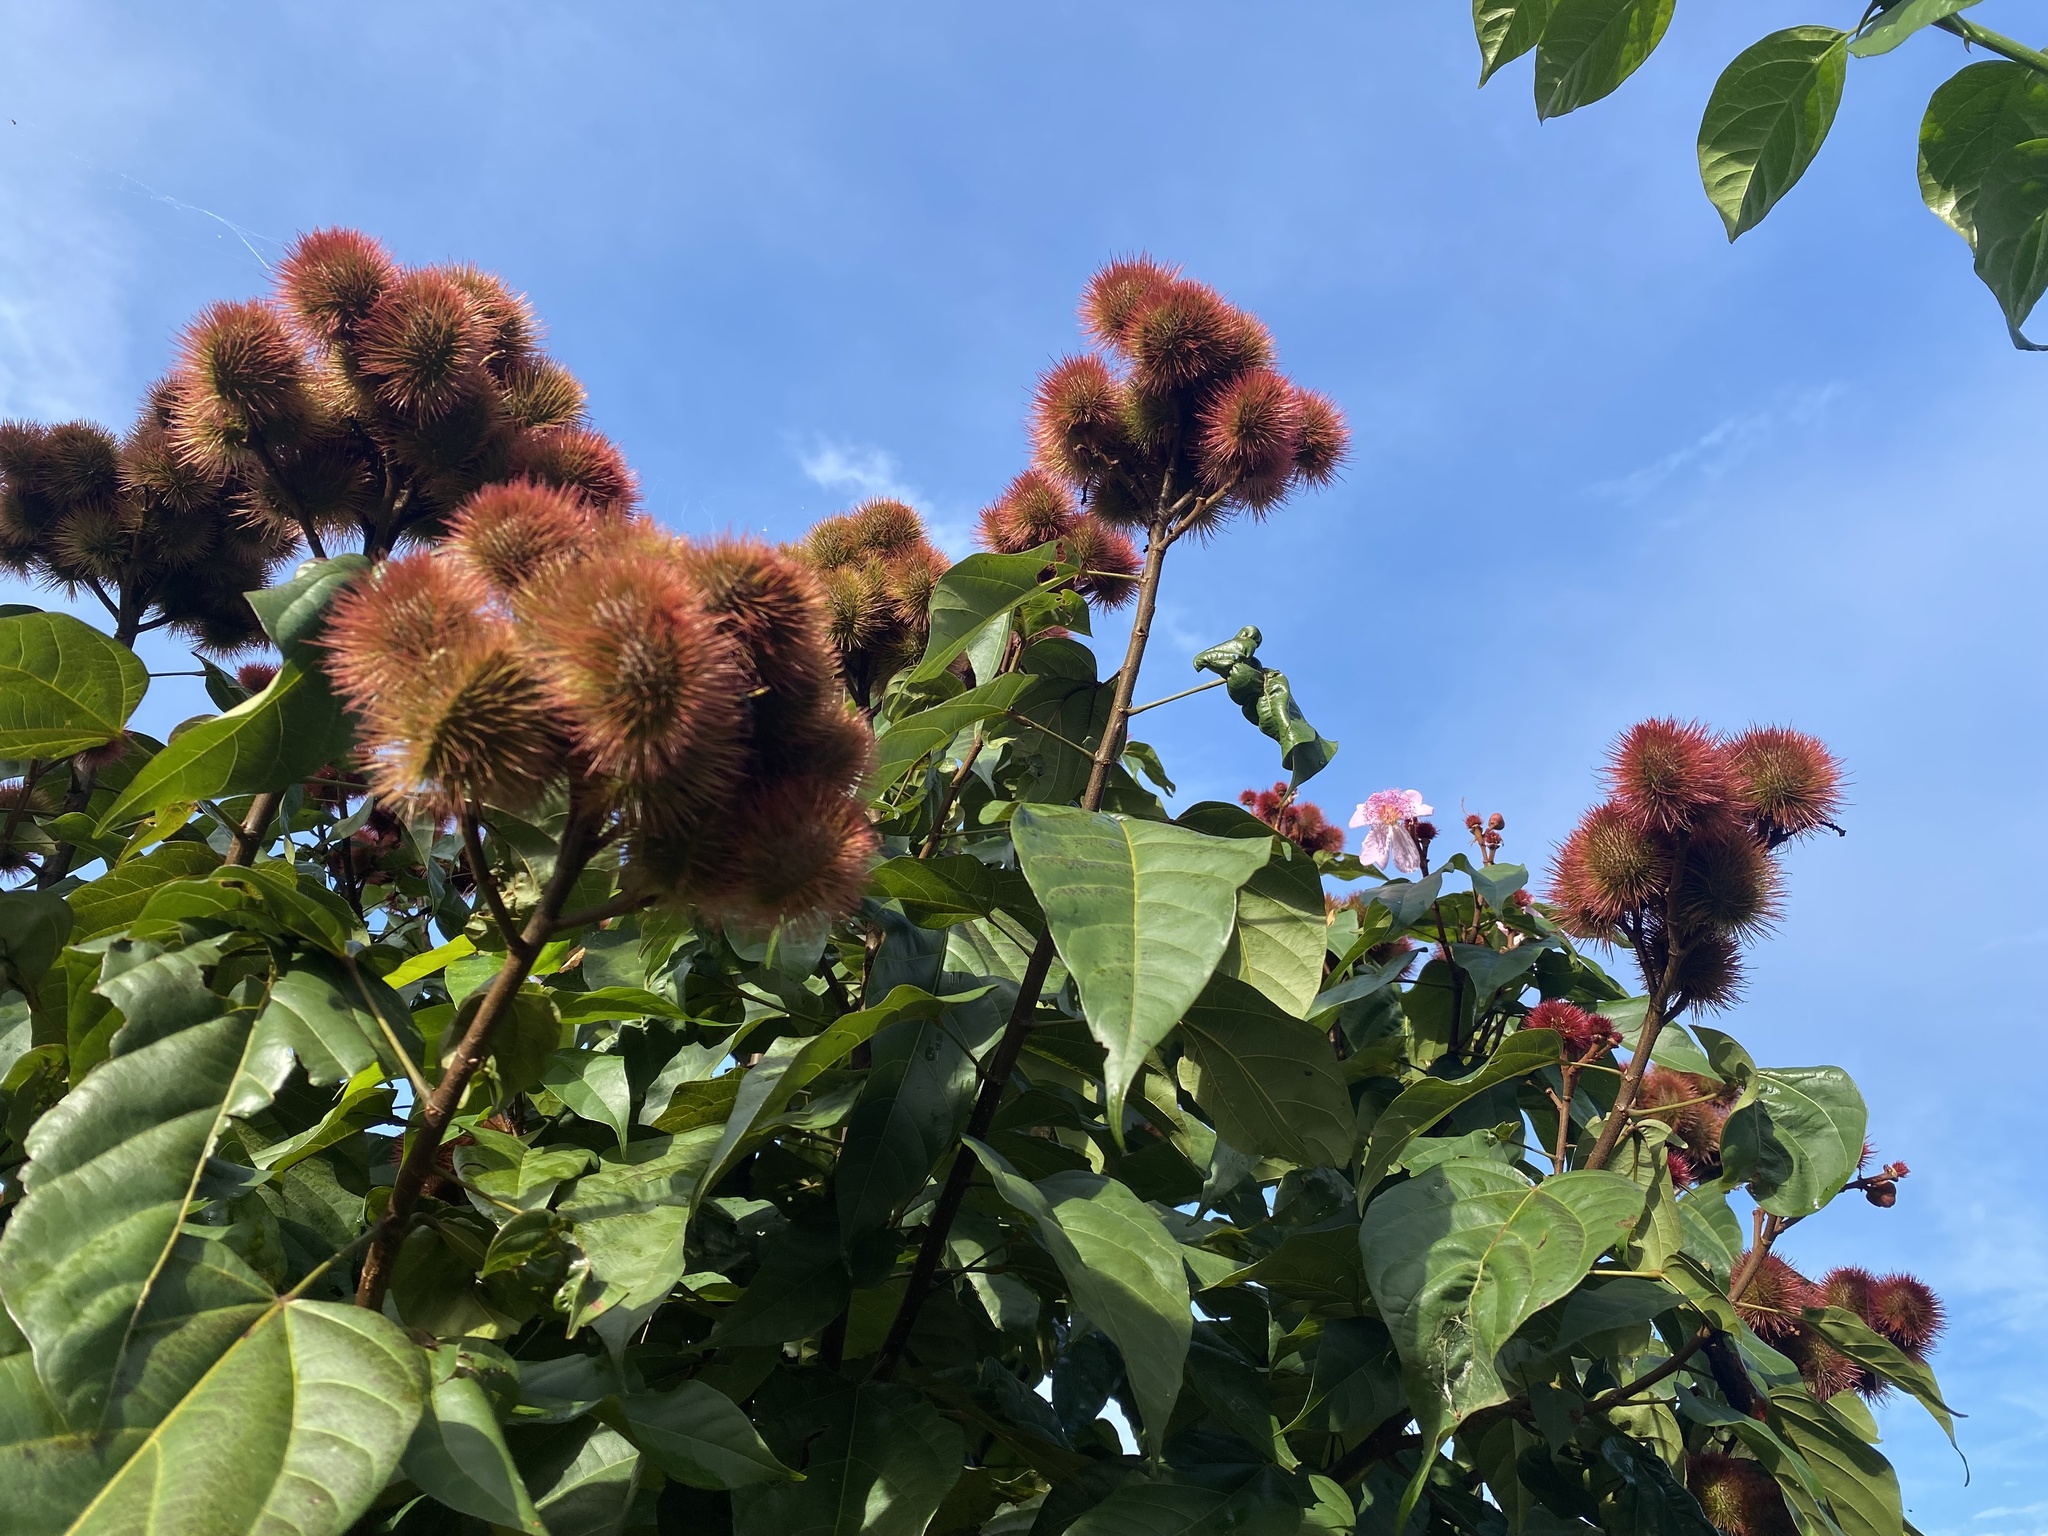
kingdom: Plantae
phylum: Tracheophyta
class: Magnoliopsida
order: Malvales
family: Bixaceae
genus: Bixa
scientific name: Bixa orellana
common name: Lipsticktree
